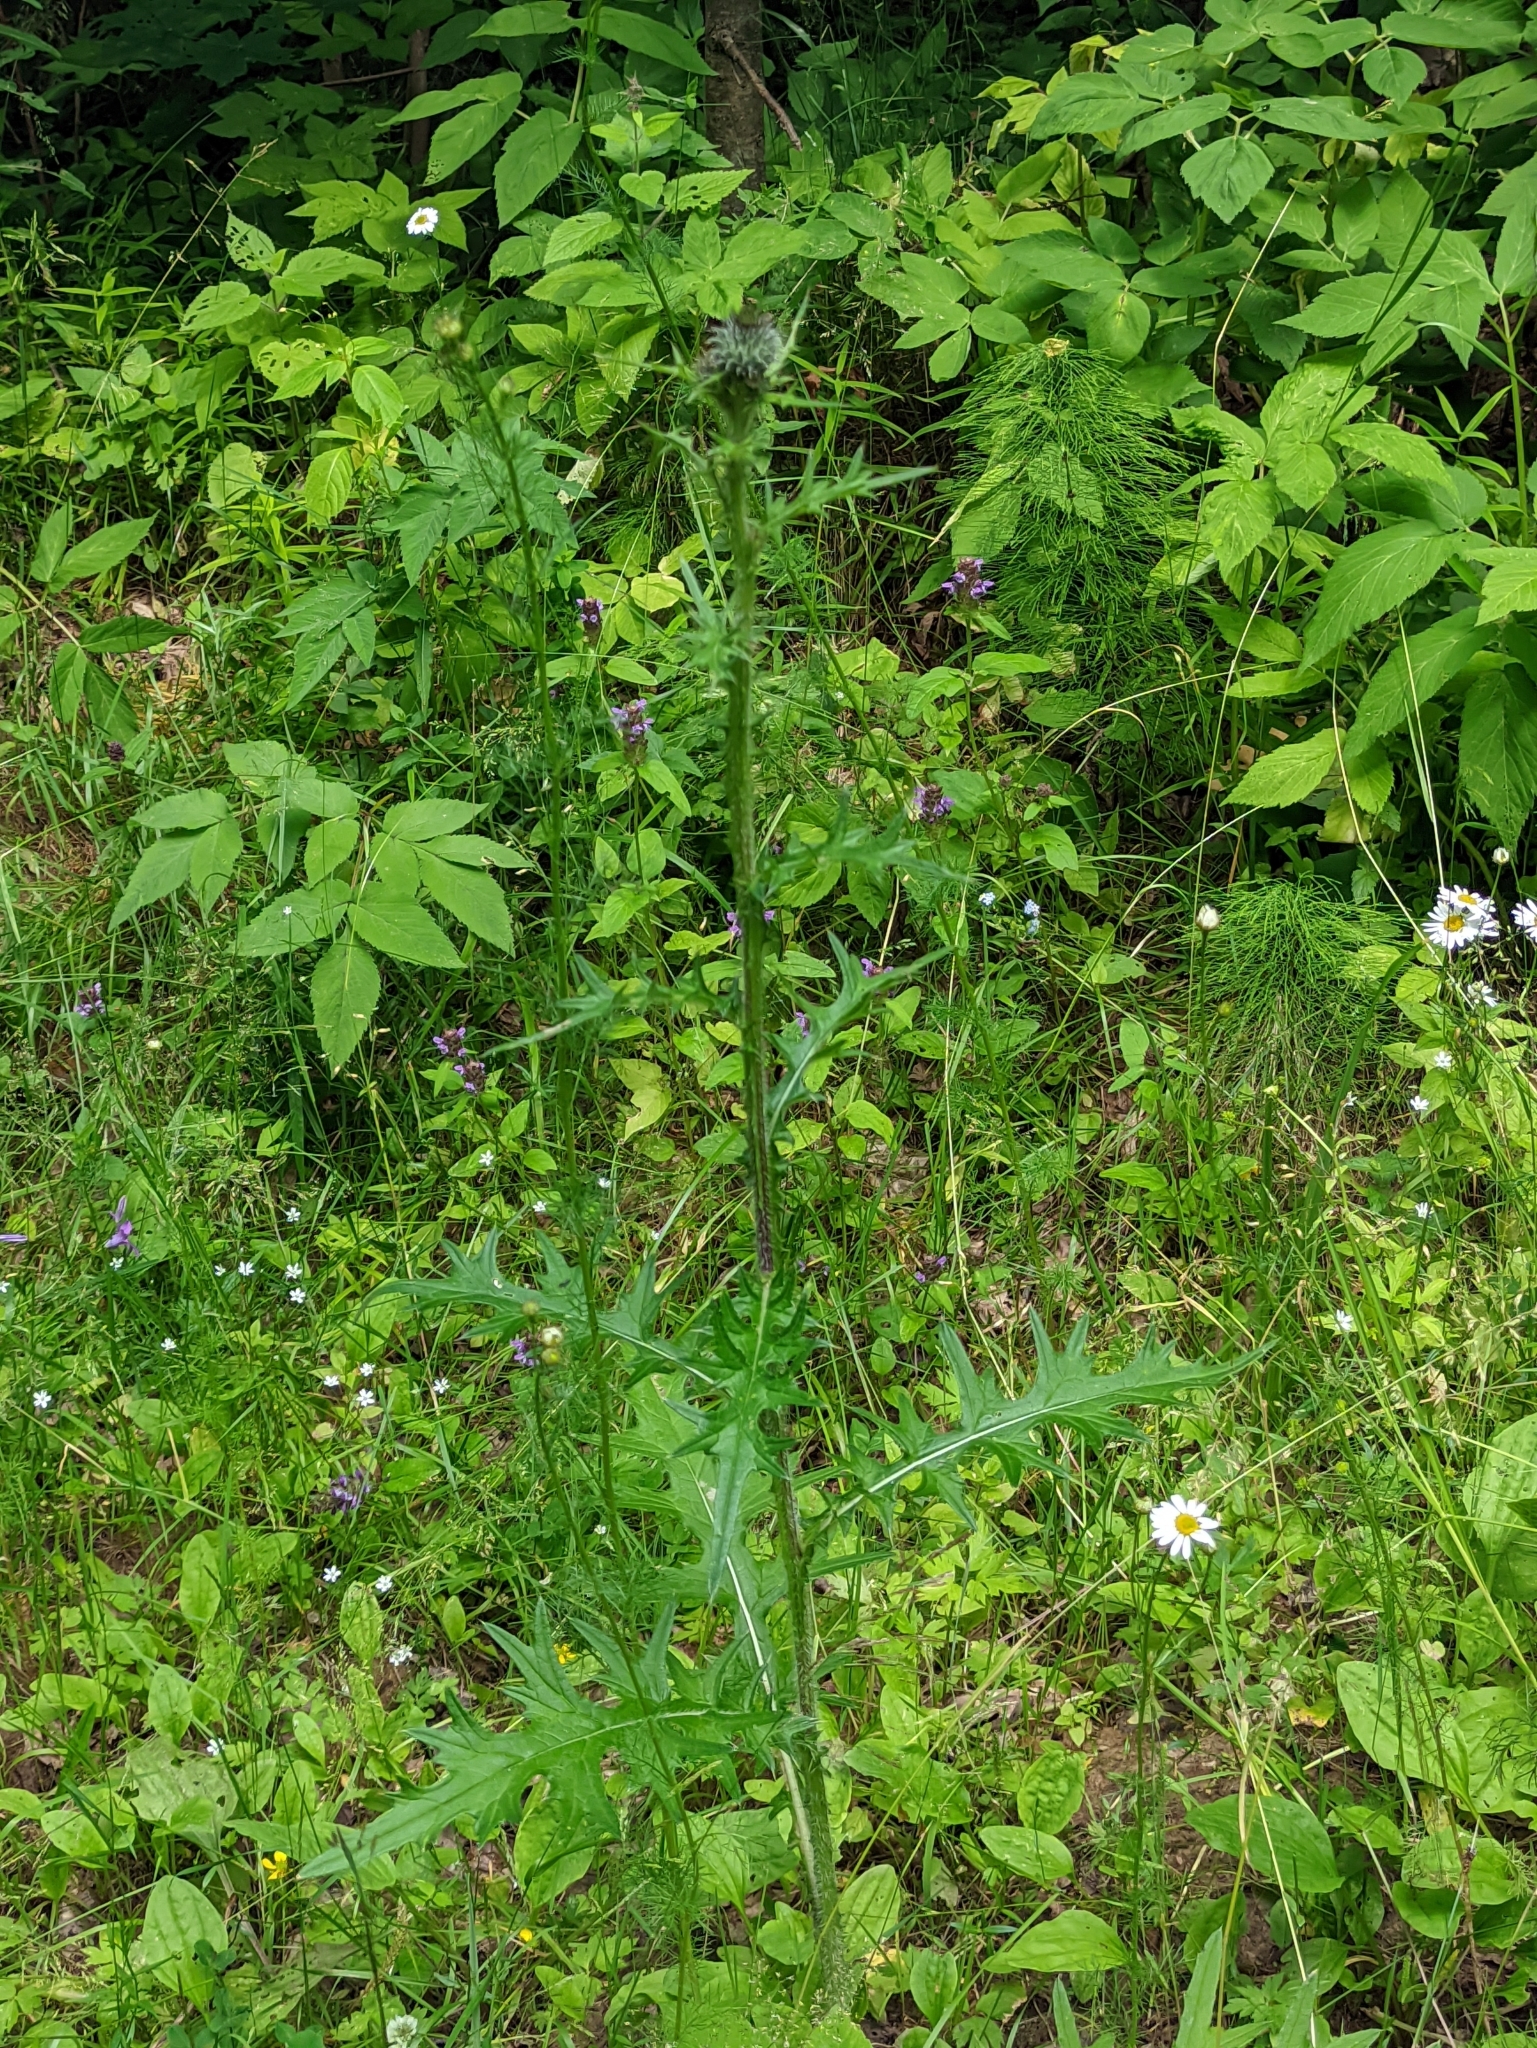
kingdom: Plantae
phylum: Tracheophyta
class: Magnoliopsida
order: Asterales
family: Asteraceae
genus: Cirsium
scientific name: Cirsium vulgare
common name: Bull thistle
